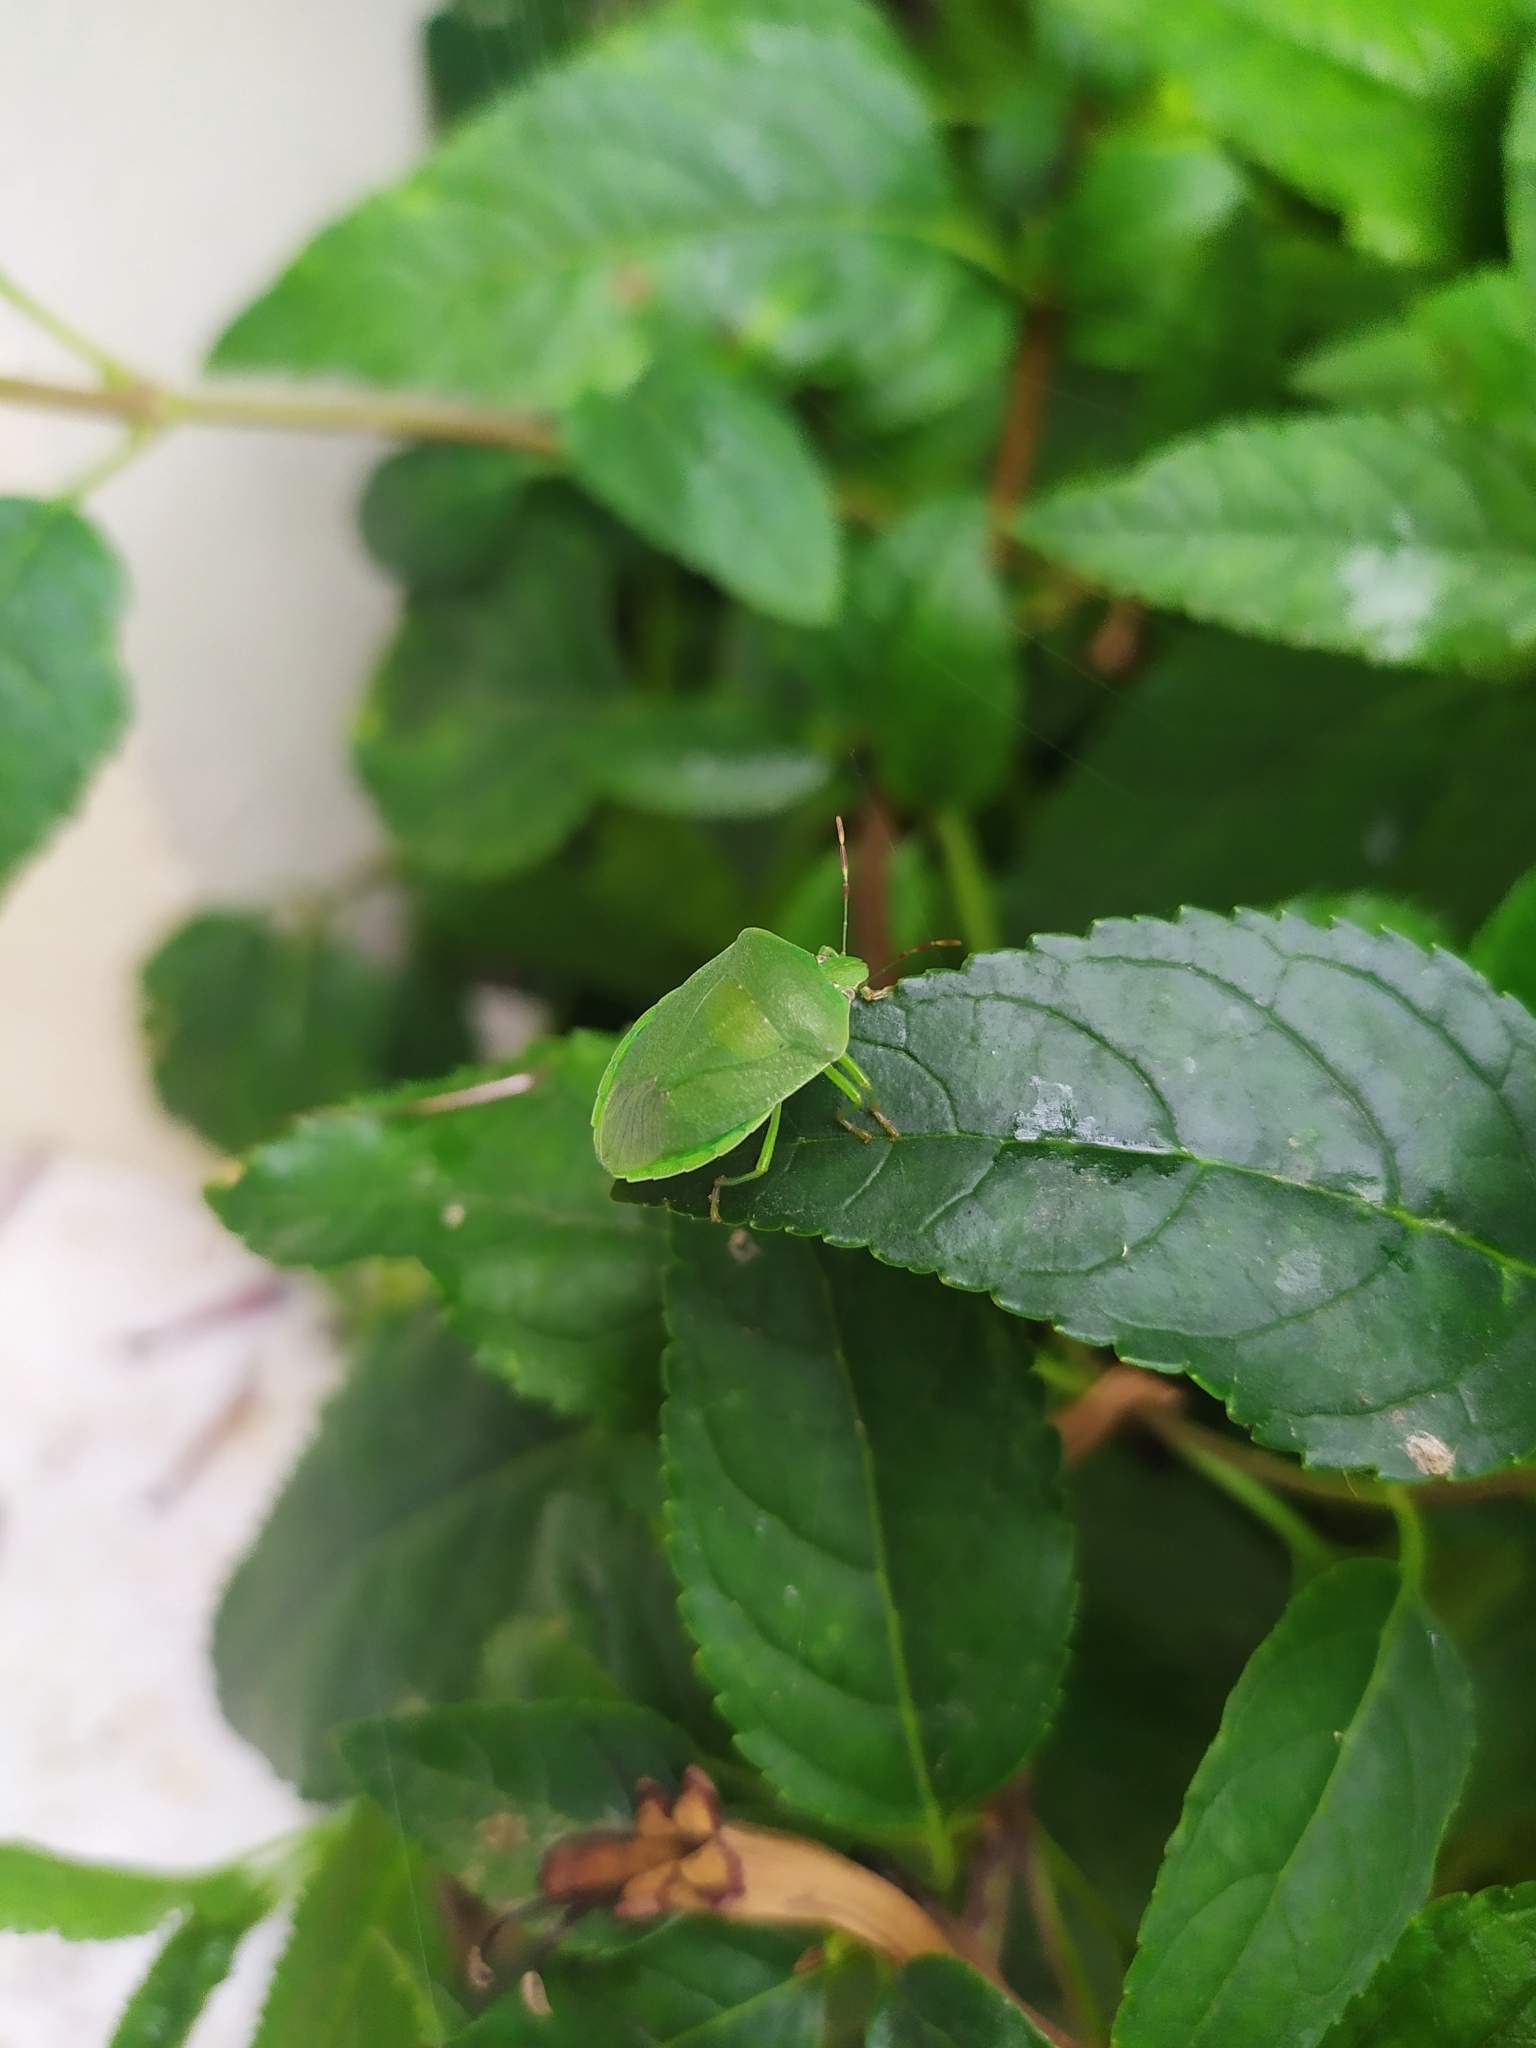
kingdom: Animalia
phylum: Arthropoda
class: Insecta
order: Hemiptera
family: Pentatomidae
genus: Nezara
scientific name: Nezara viridula
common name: Southern green stink bug
